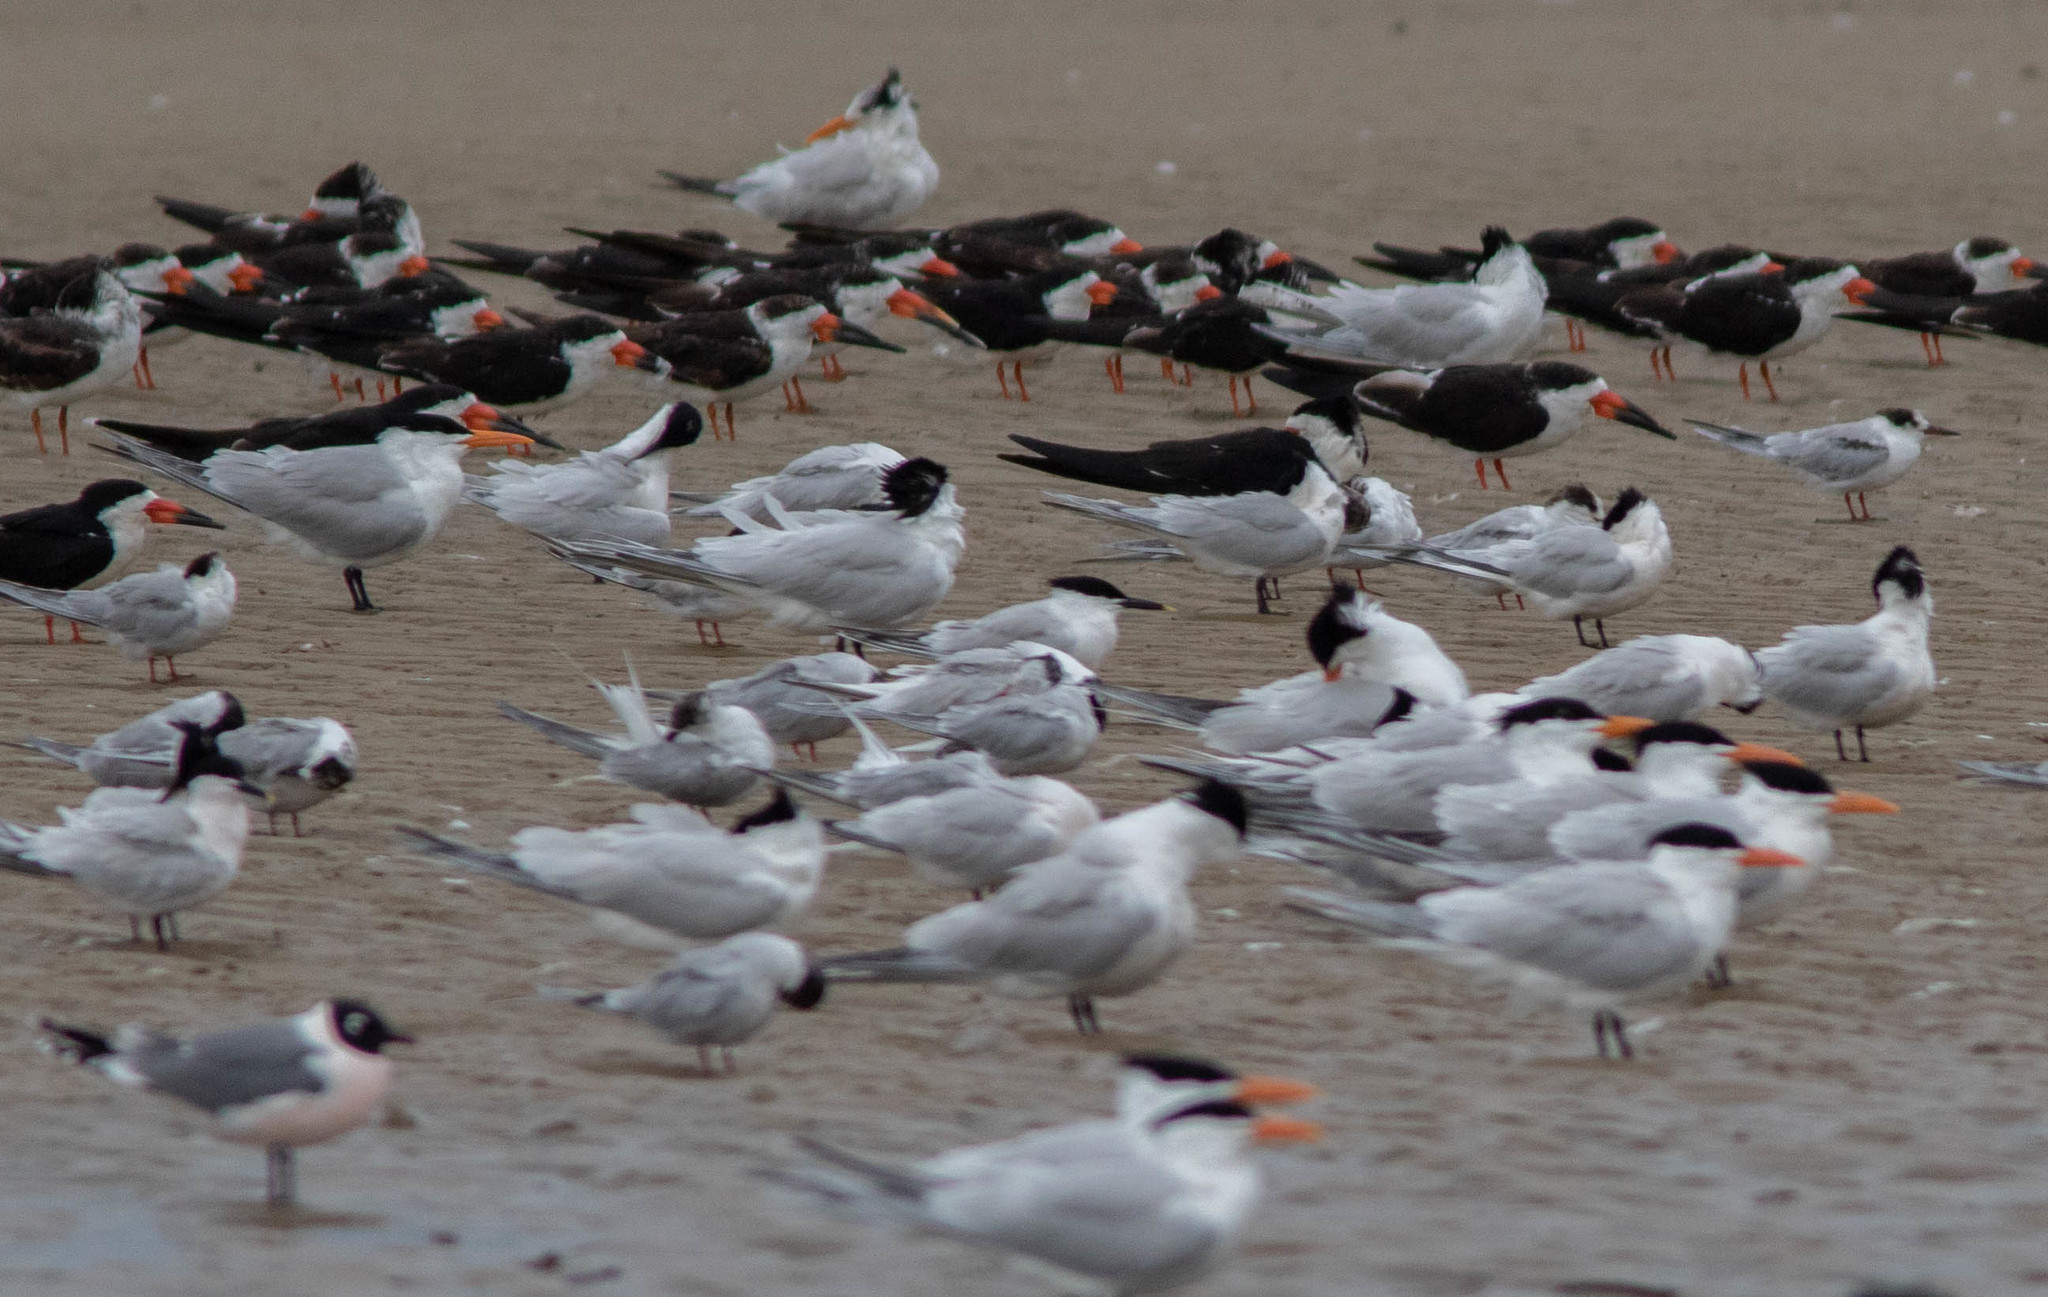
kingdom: Animalia
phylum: Chordata
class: Aves
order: Charadriiformes
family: Laridae
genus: Thalasseus
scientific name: Thalasseus sandvicensis
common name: Sandwich tern
